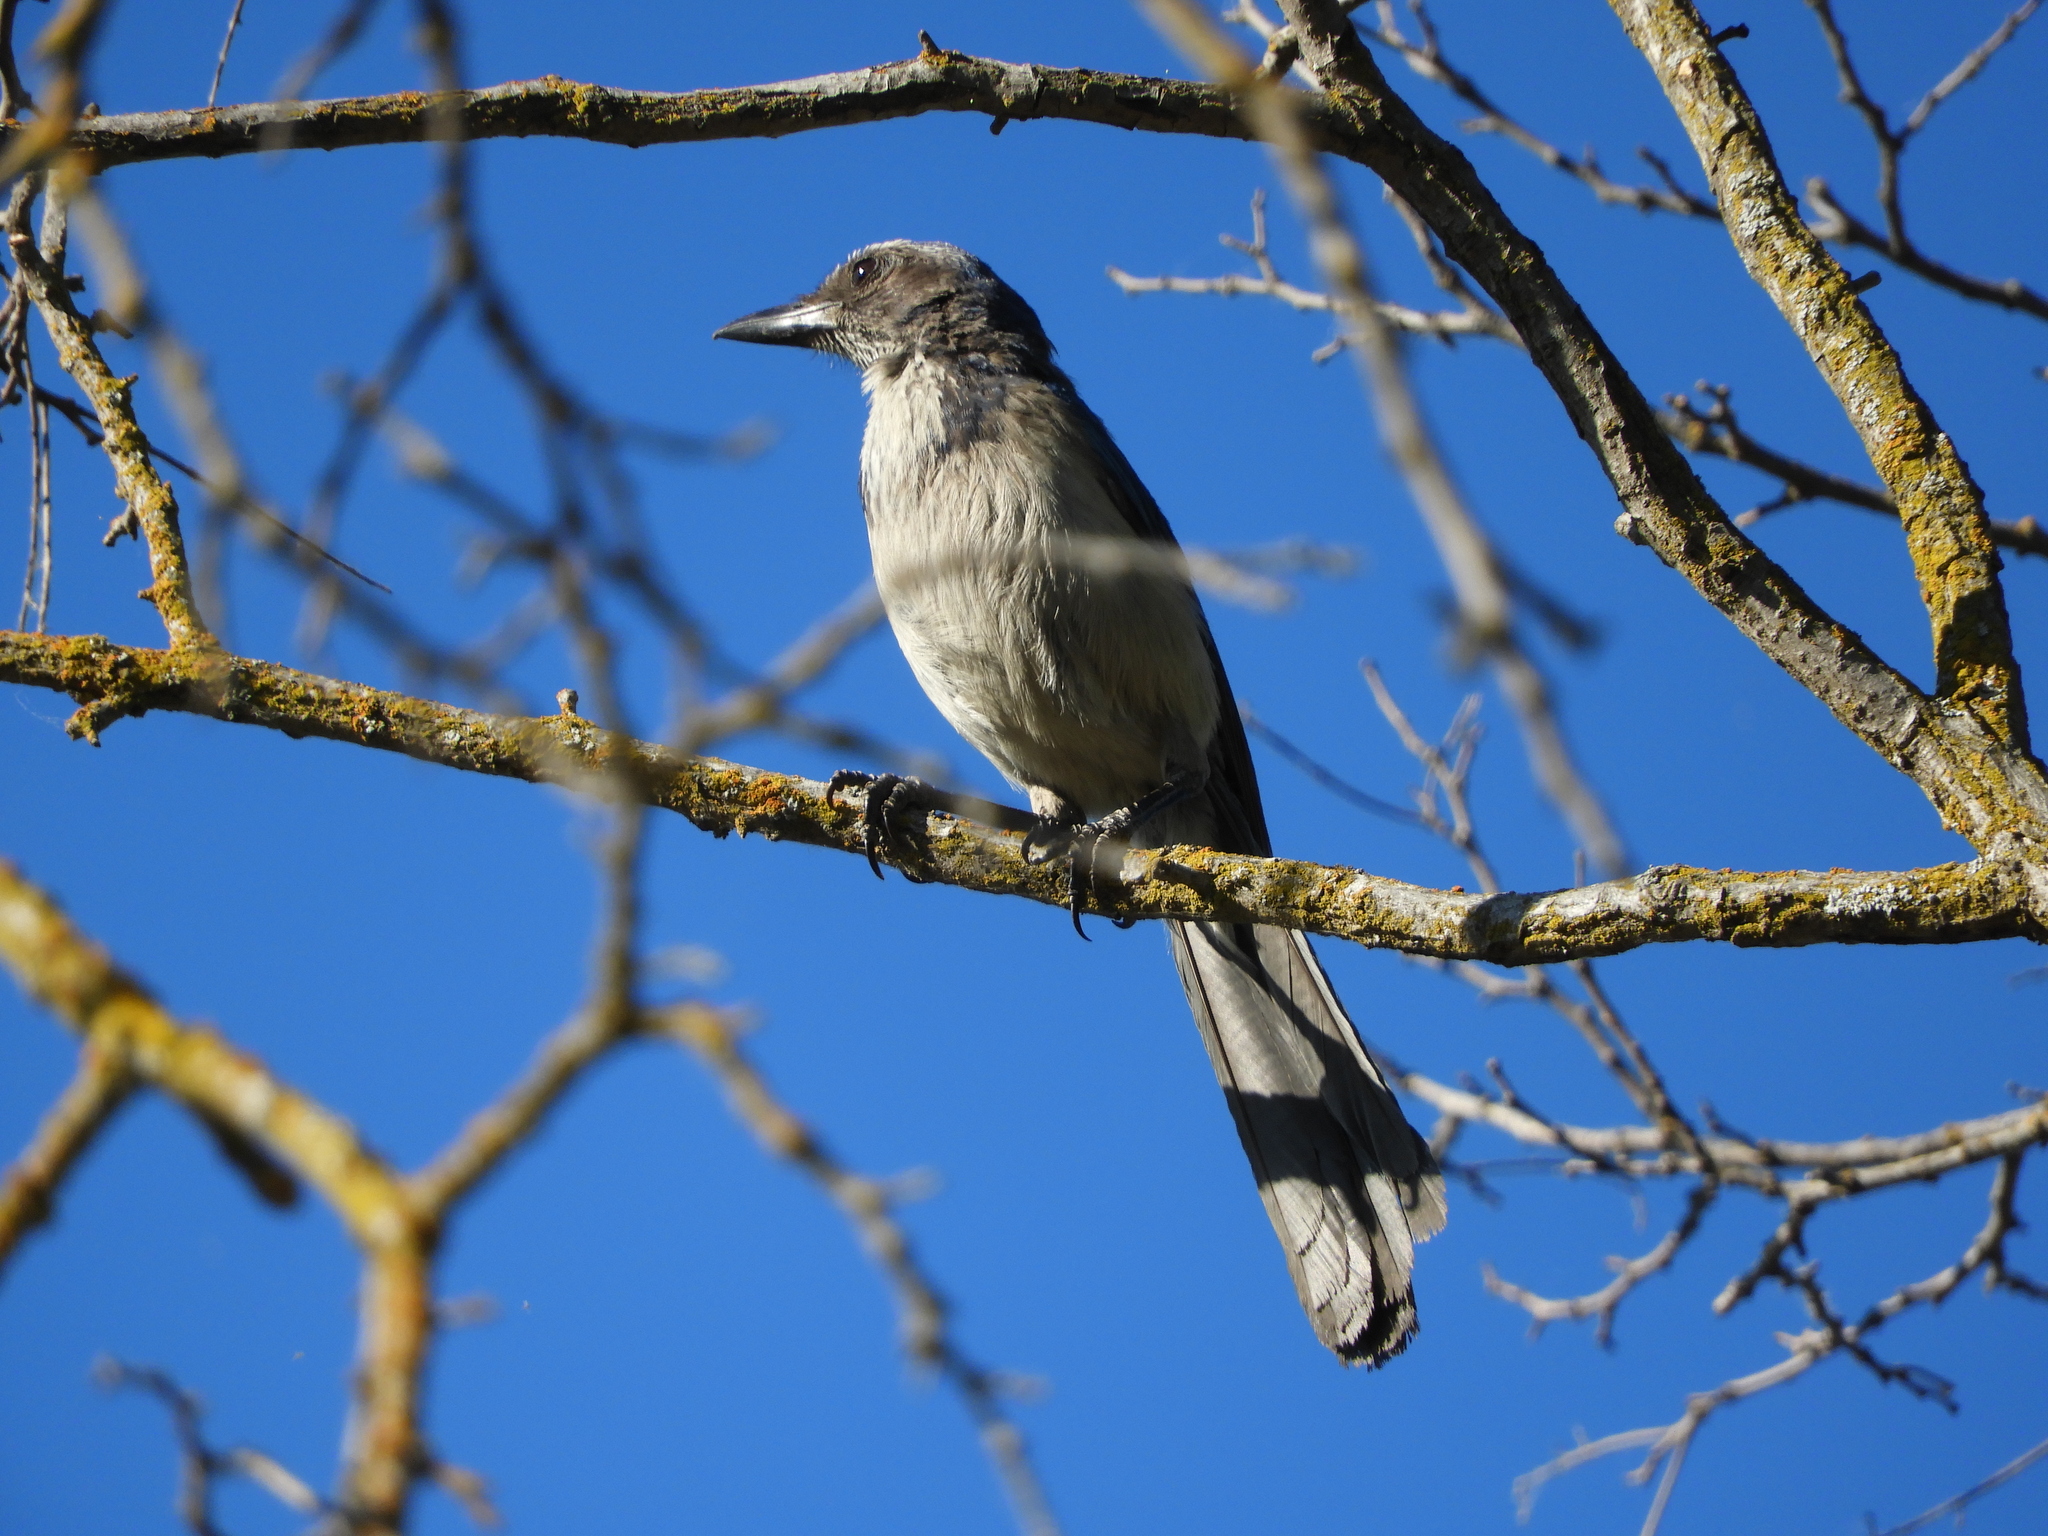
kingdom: Animalia
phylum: Chordata
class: Aves
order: Passeriformes
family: Corvidae
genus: Aphelocoma
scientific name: Aphelocoma californica
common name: California scrub-jay
